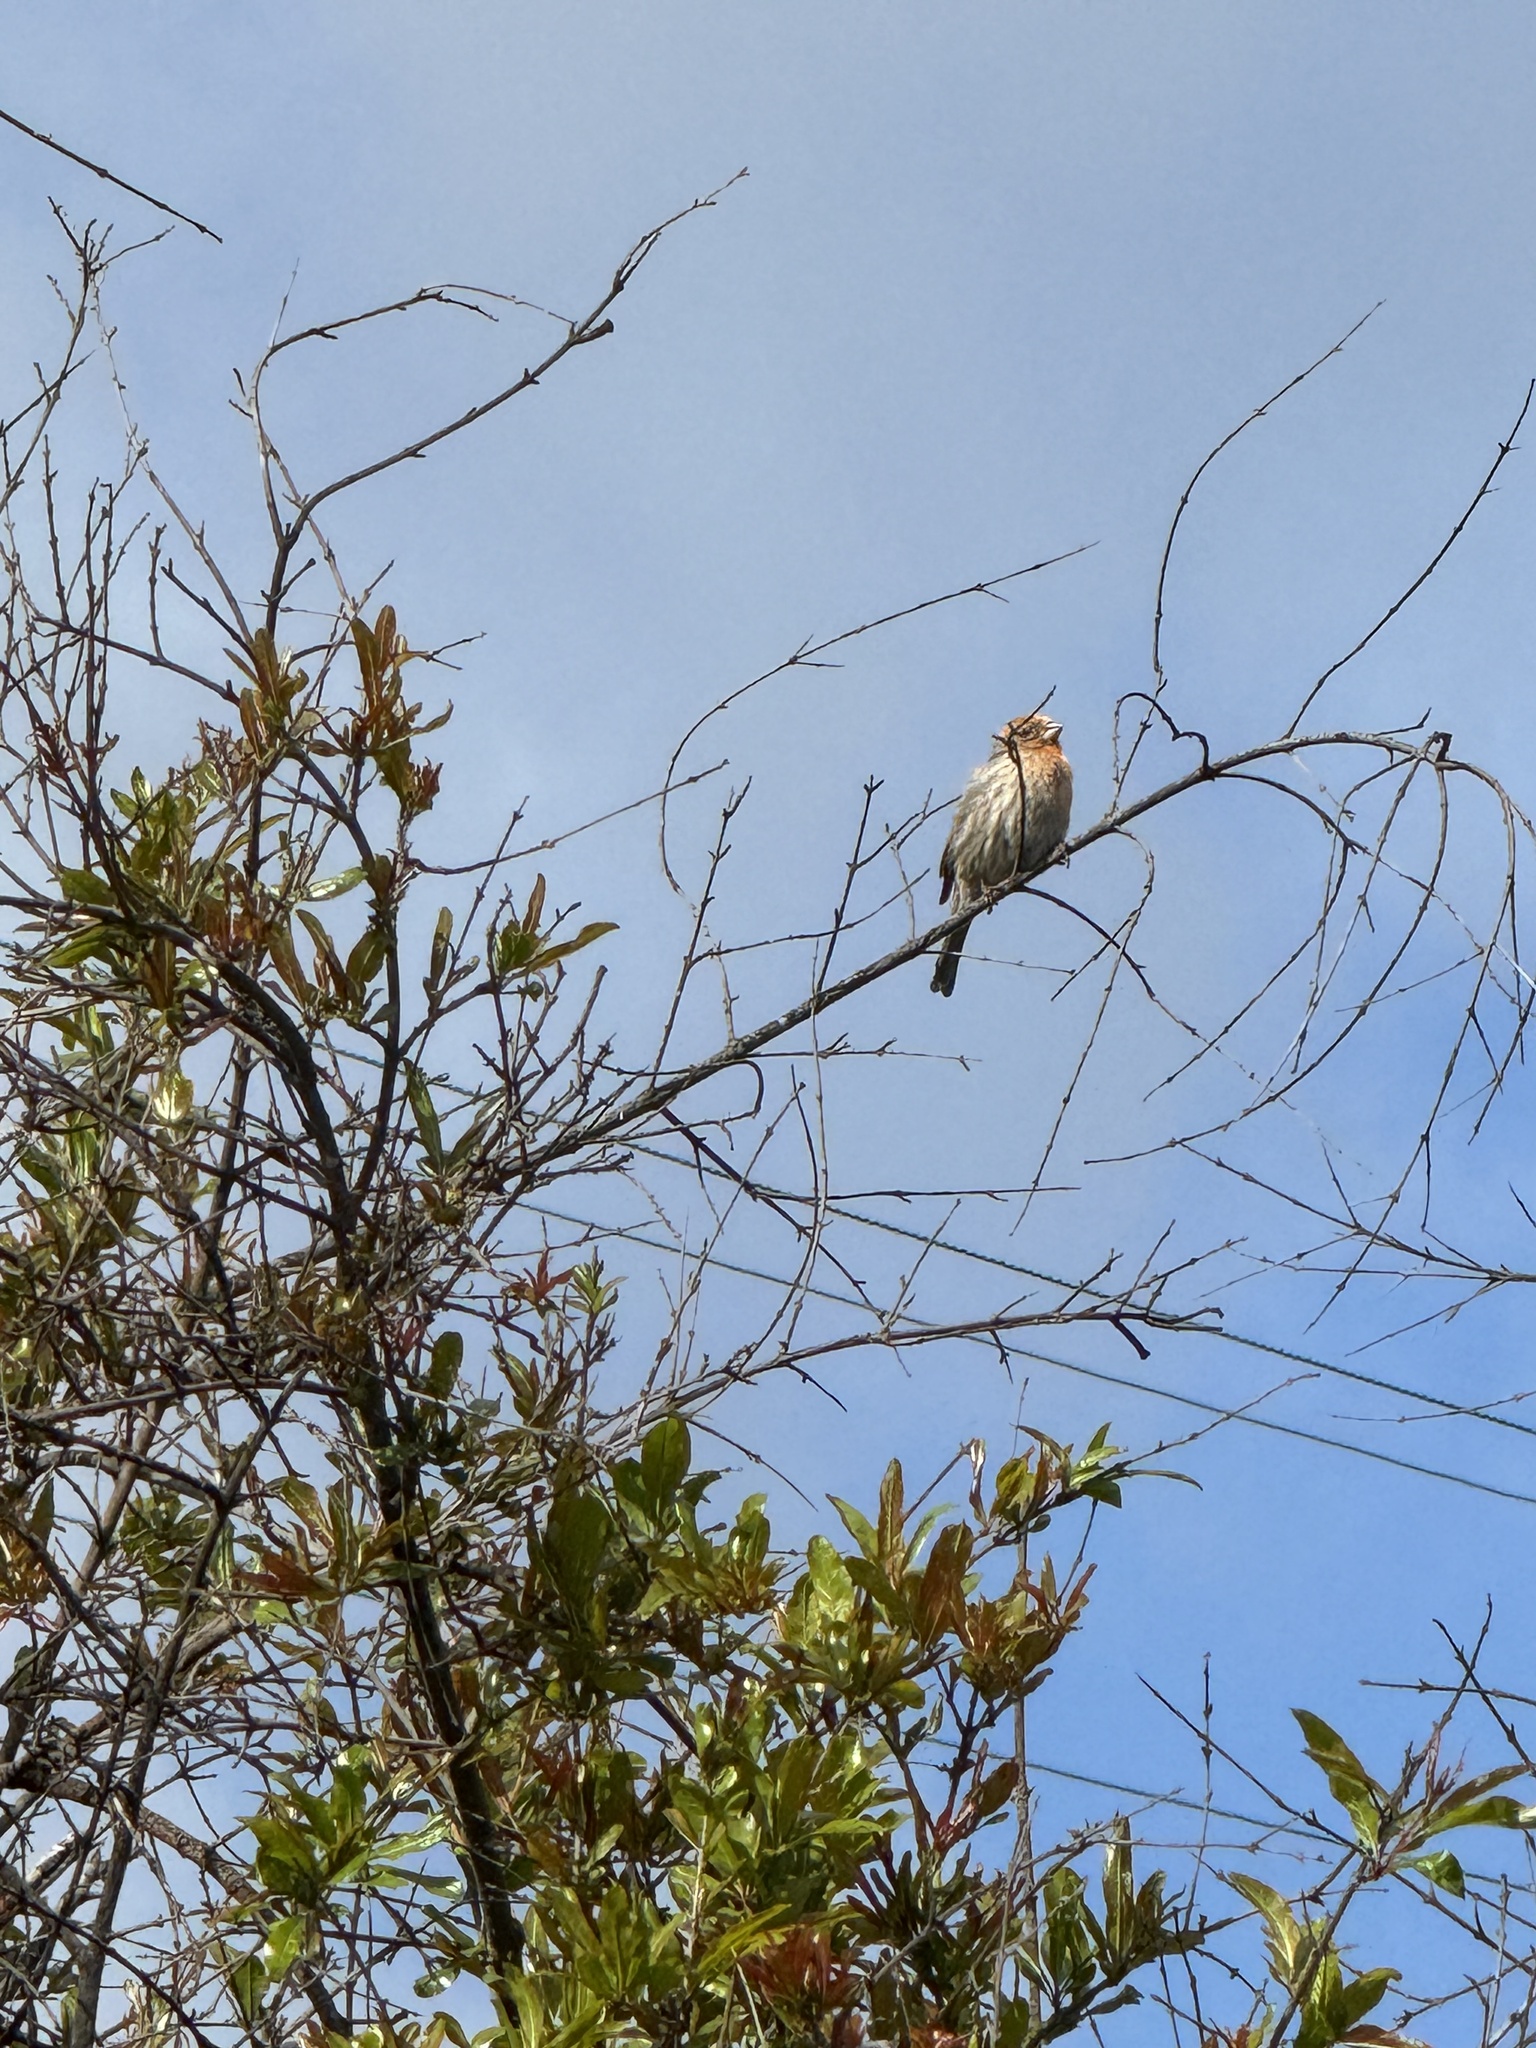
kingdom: Animalia
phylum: Chordata
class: Aves
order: Passeriformes
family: Fringillidae
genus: Haemorhous
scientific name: Haemorhous mexicanus
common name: House finch
